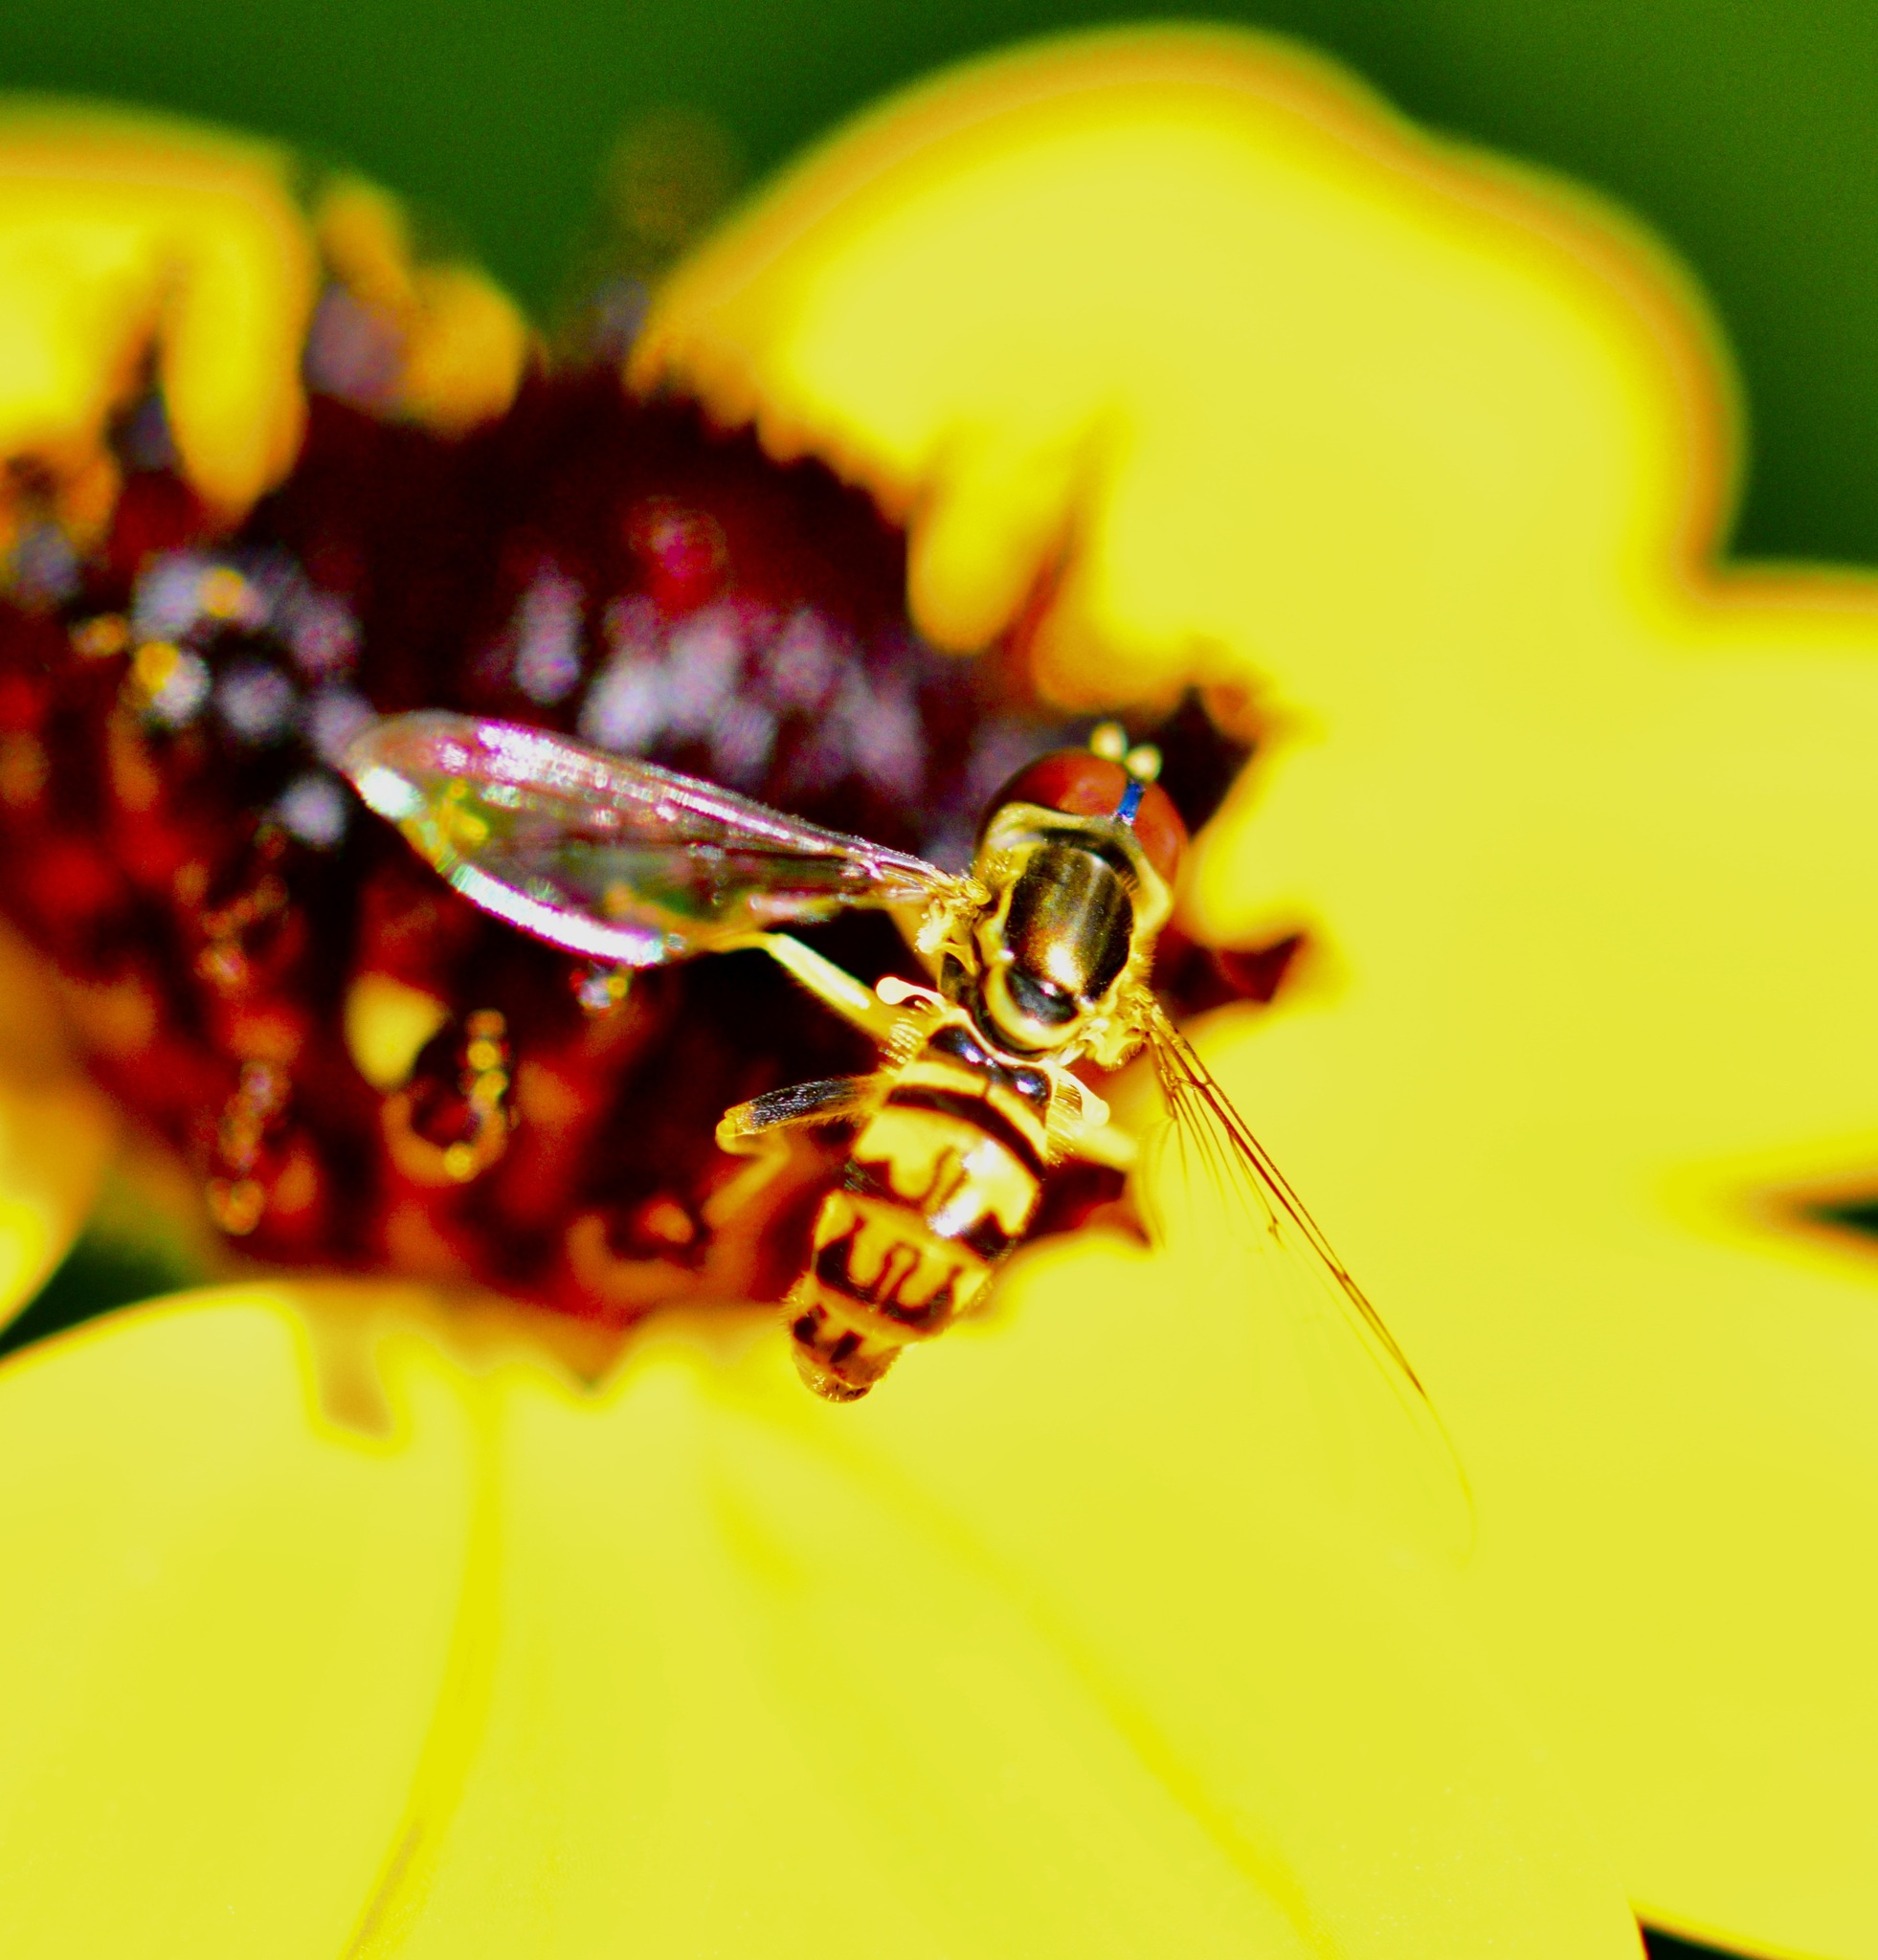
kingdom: Animalia
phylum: Arthropoda
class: Insecta
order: Diptera
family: Syrphidae
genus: Toxomerus
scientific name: Toxomerus geminatus
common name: Eastern calligrapher
